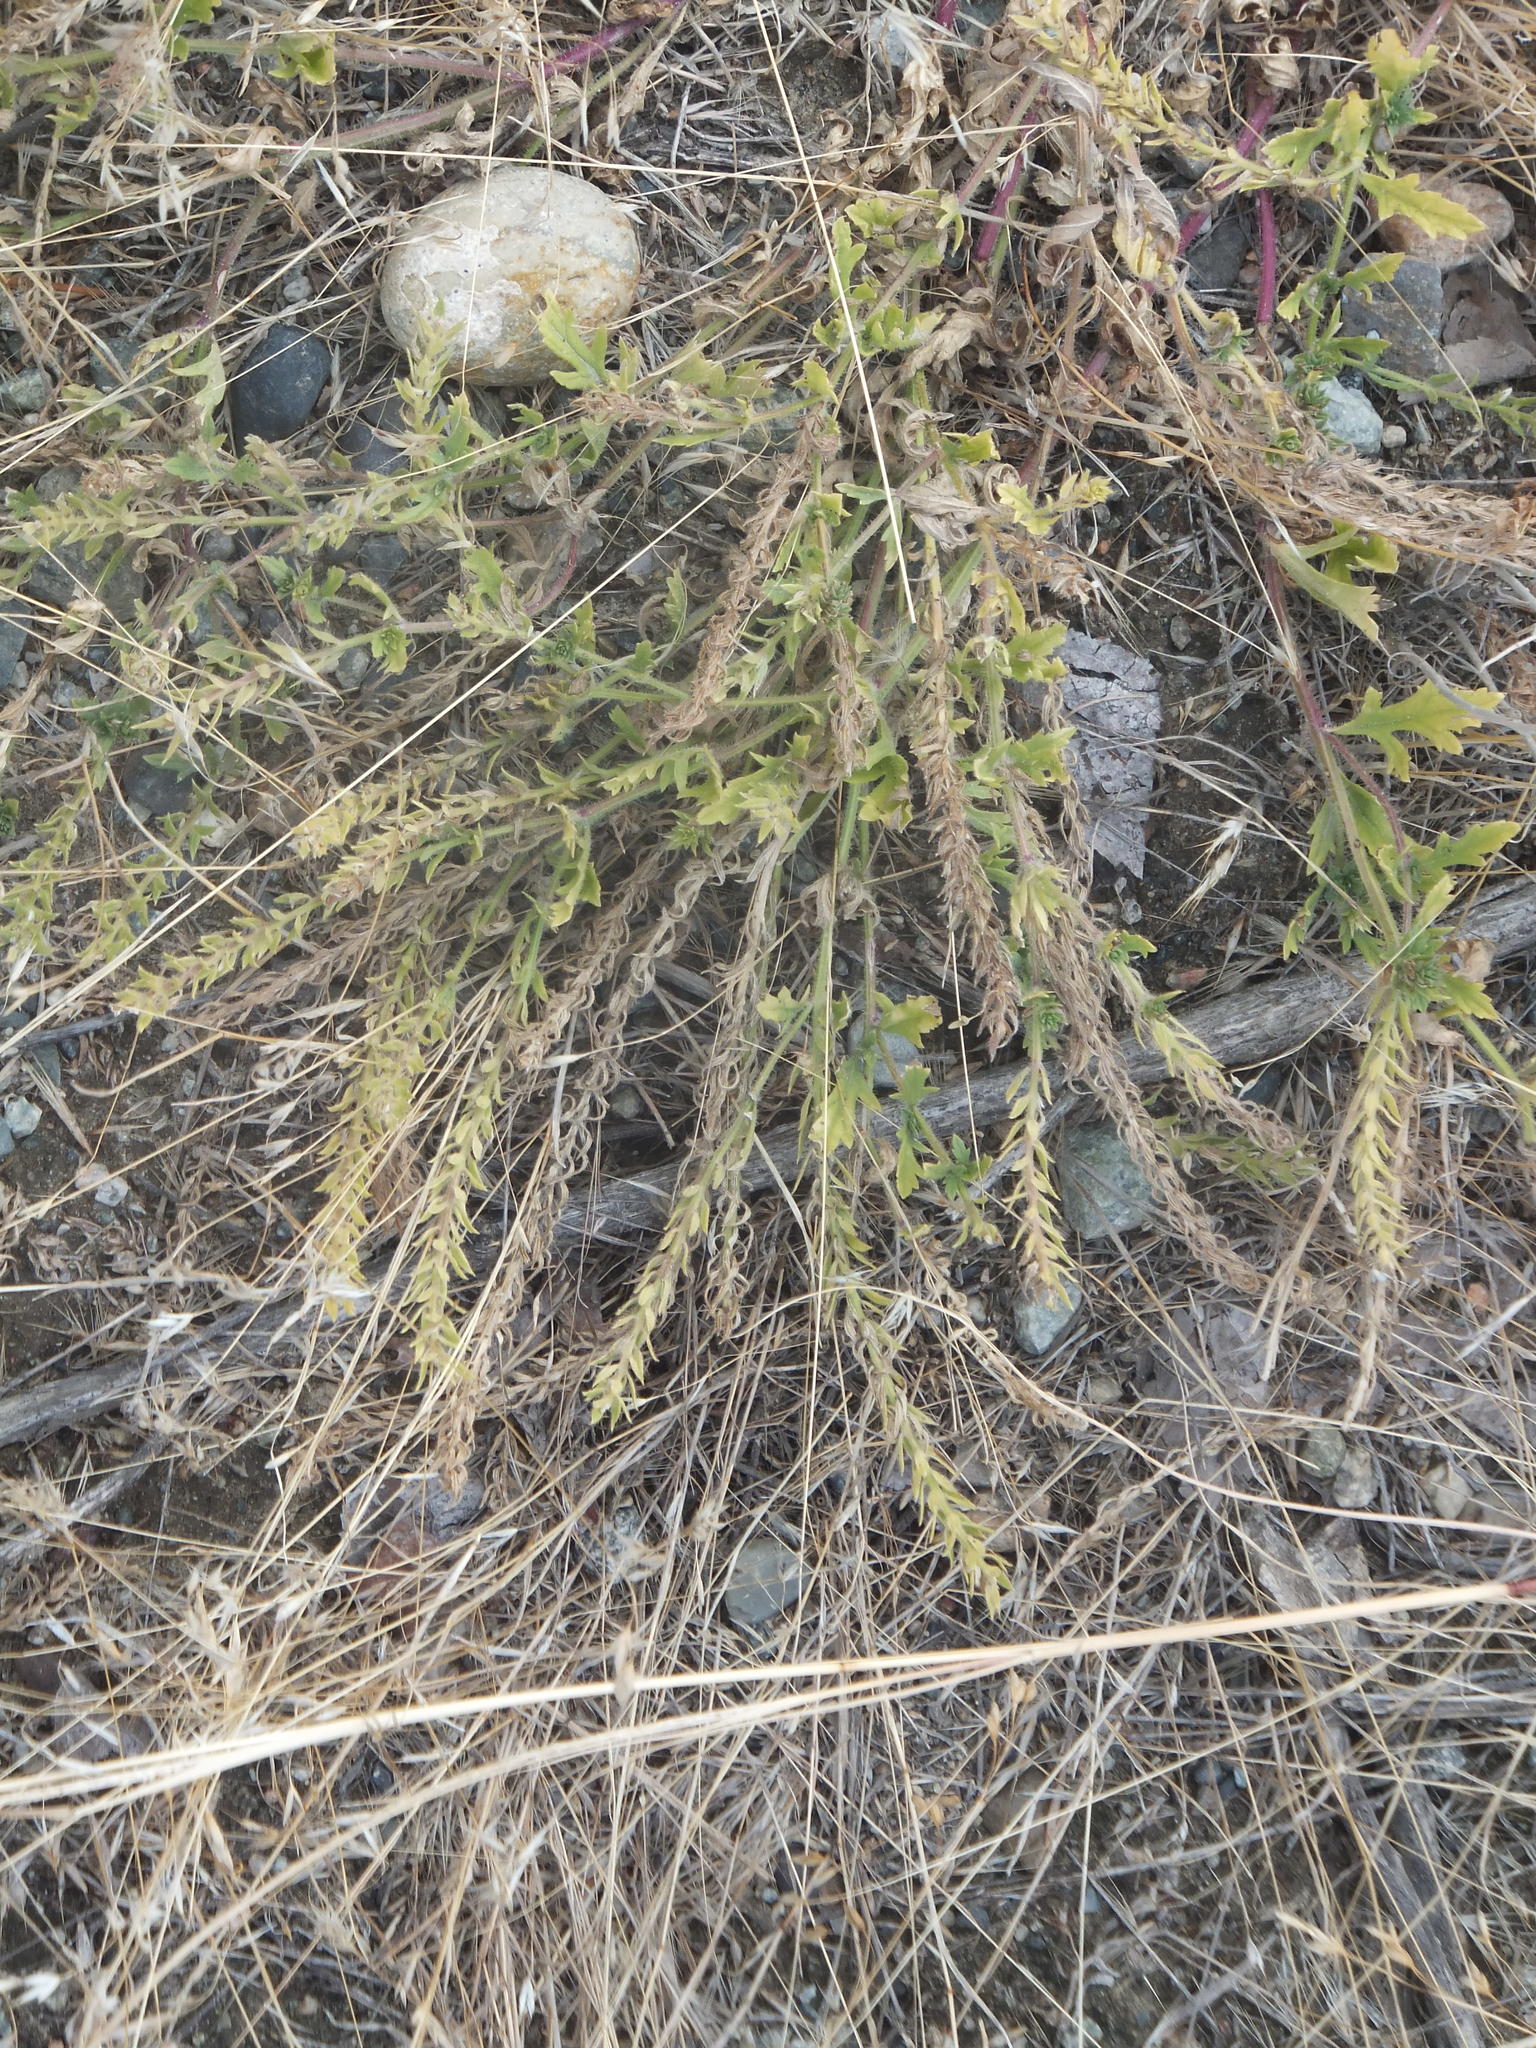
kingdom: Plantae
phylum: Tracheophyta
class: Magnoliopsida
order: Lamiales
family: Verbenaceae
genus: Verbena
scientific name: Verbena bracteata
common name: Bracted vervain
